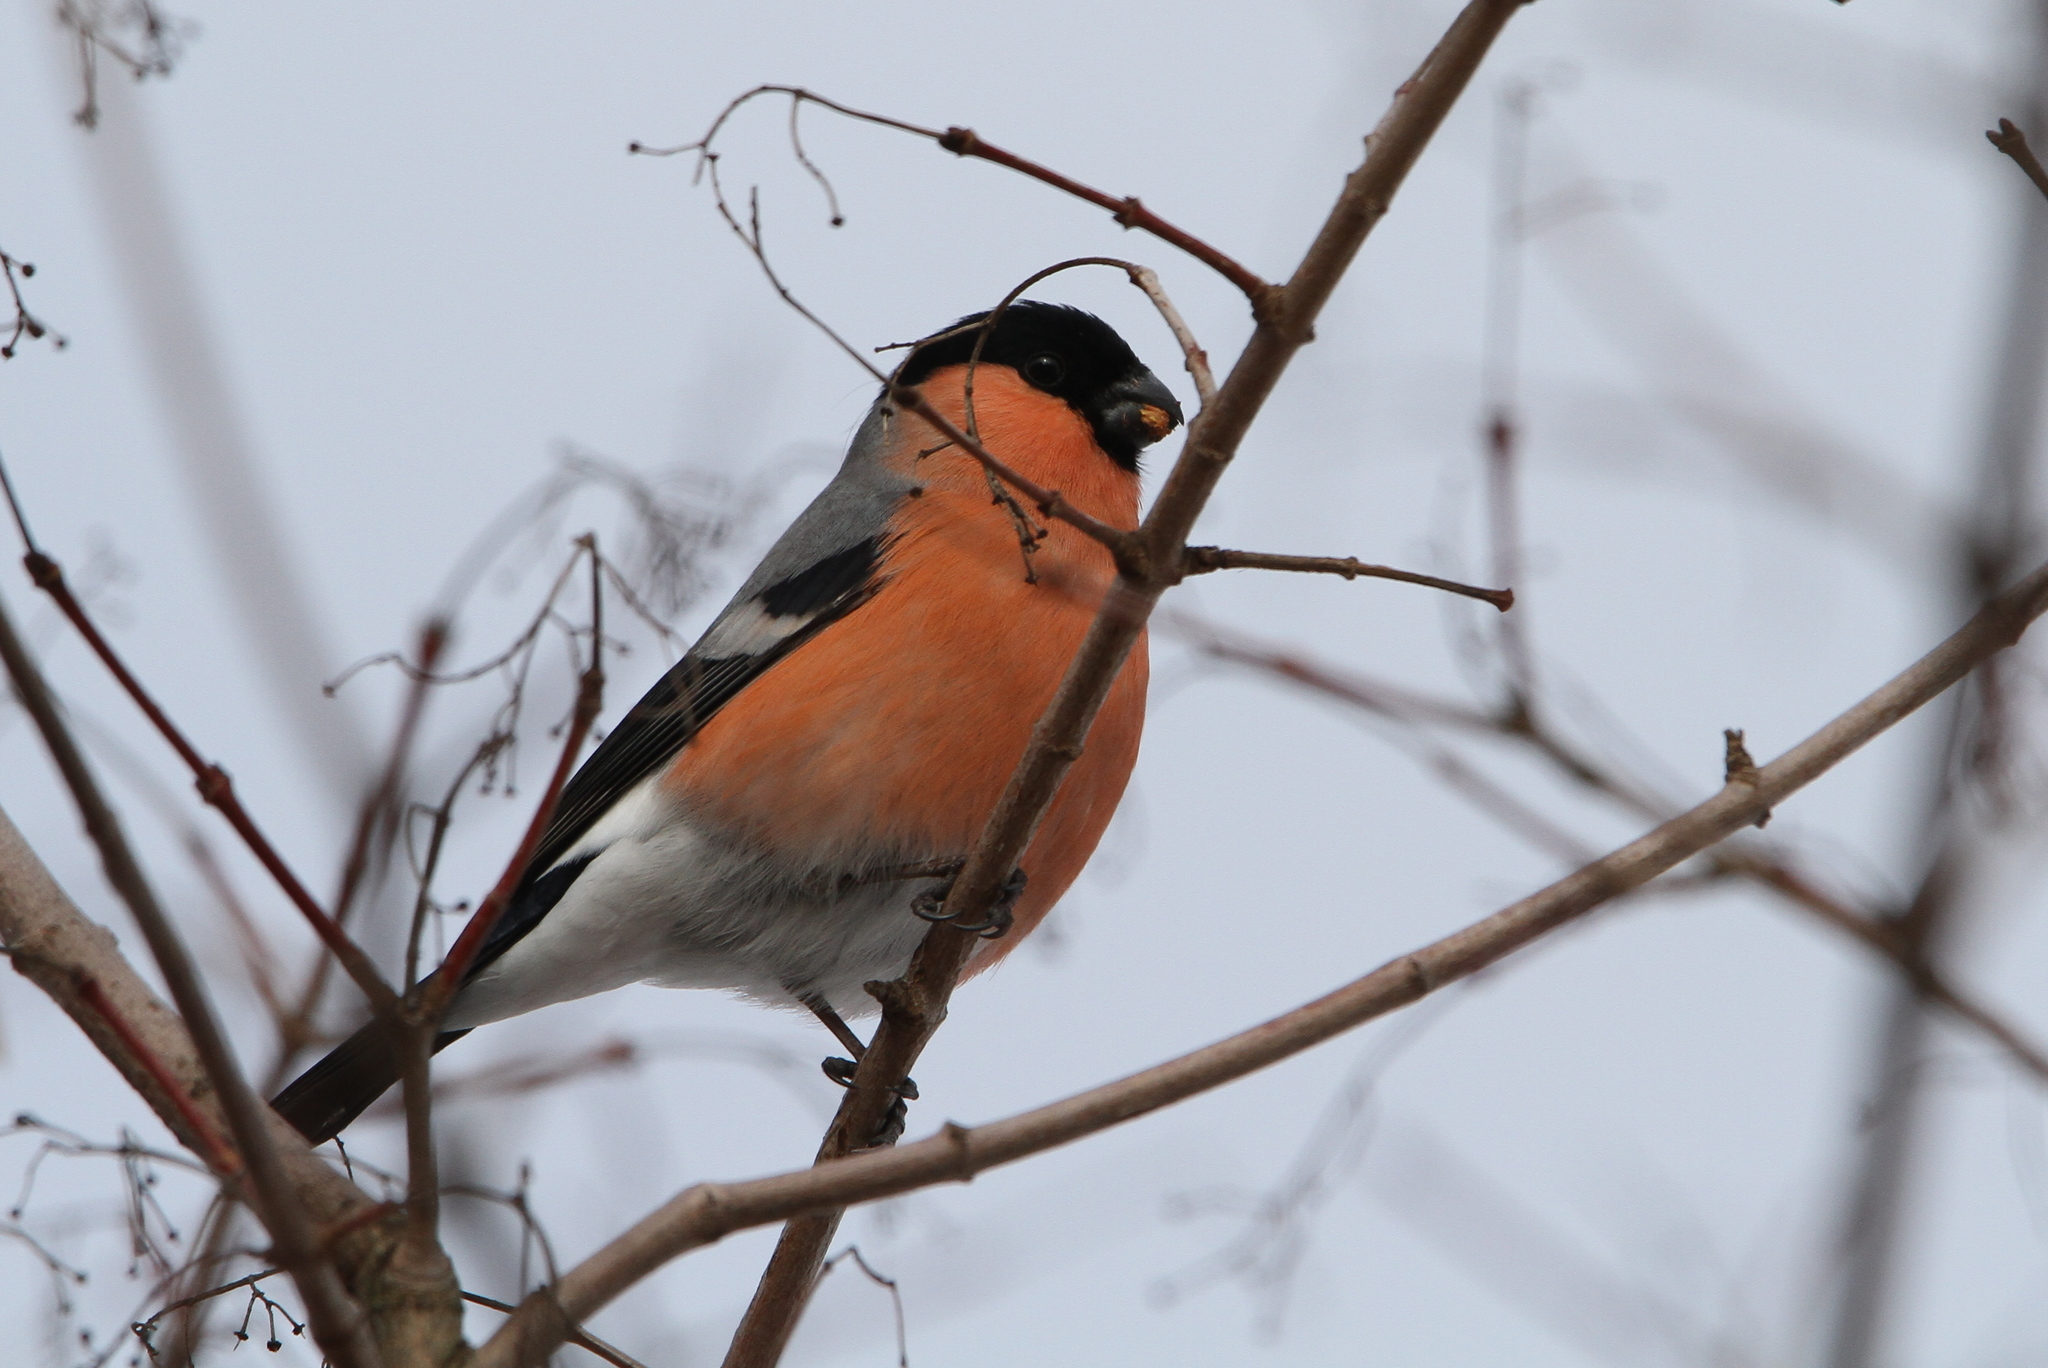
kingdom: Animalia
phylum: Chordata
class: Aves
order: Passeriformes
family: Fringillidae
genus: Pyrrhula
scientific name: Pyrrhula pyrrhula
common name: Eurasian bullfinch
